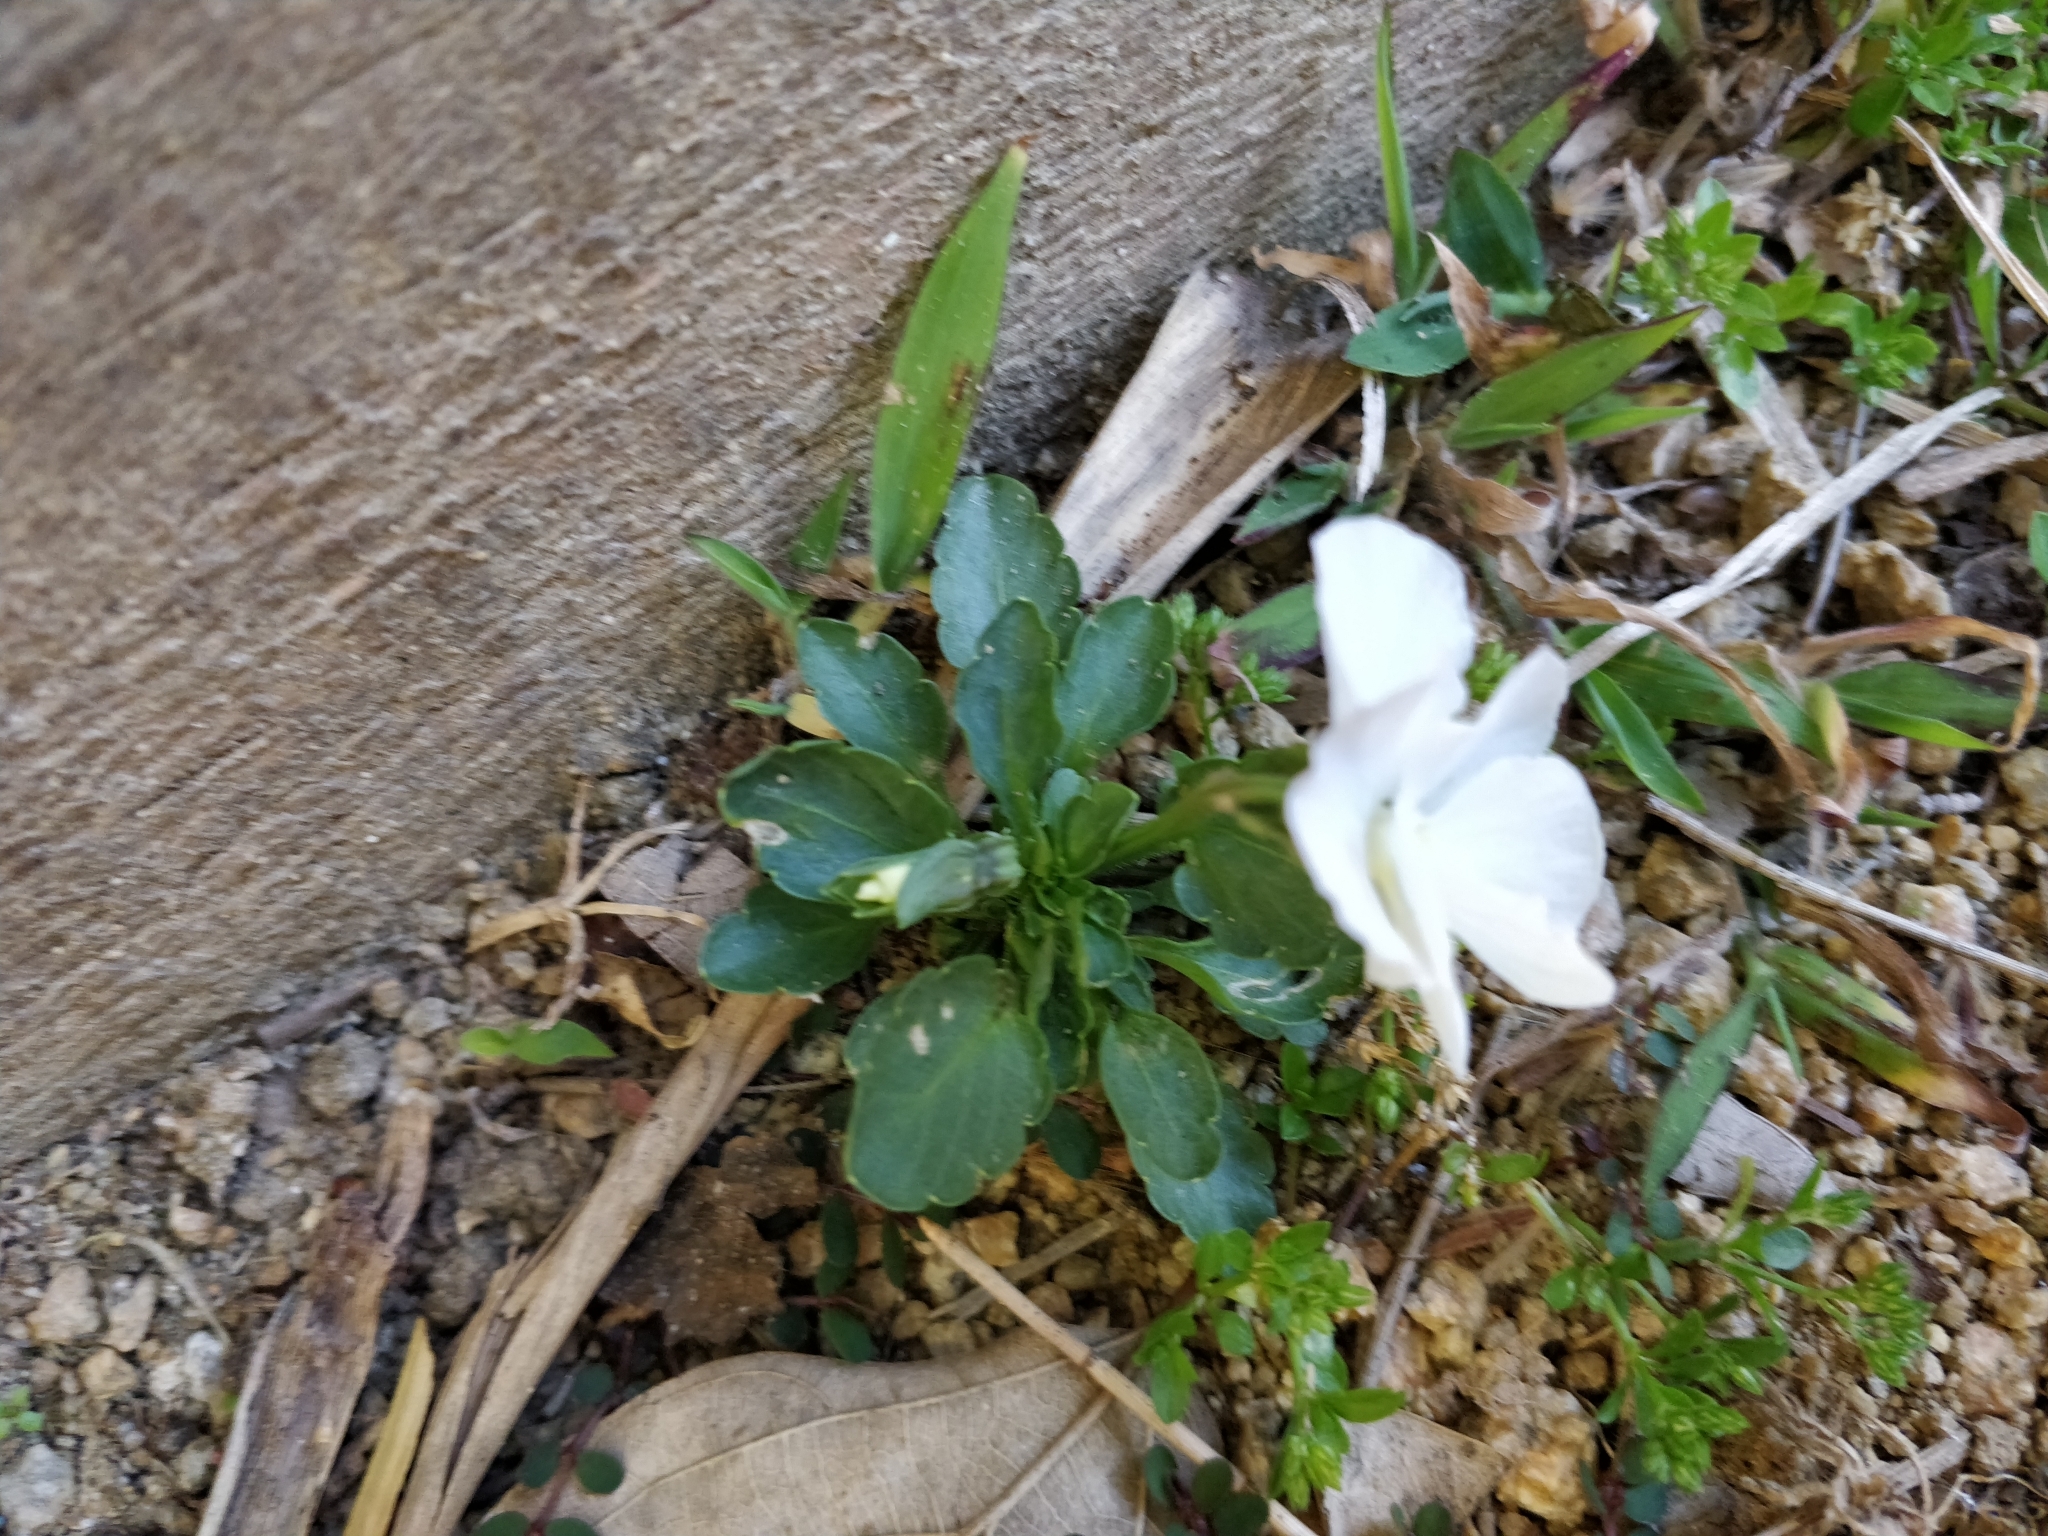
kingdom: Plantae
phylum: Tracheophyta
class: Magnoliopsida
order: Malpighiales
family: Violaceae
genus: Viola
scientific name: Viola wittrockiana
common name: Garden pansy
